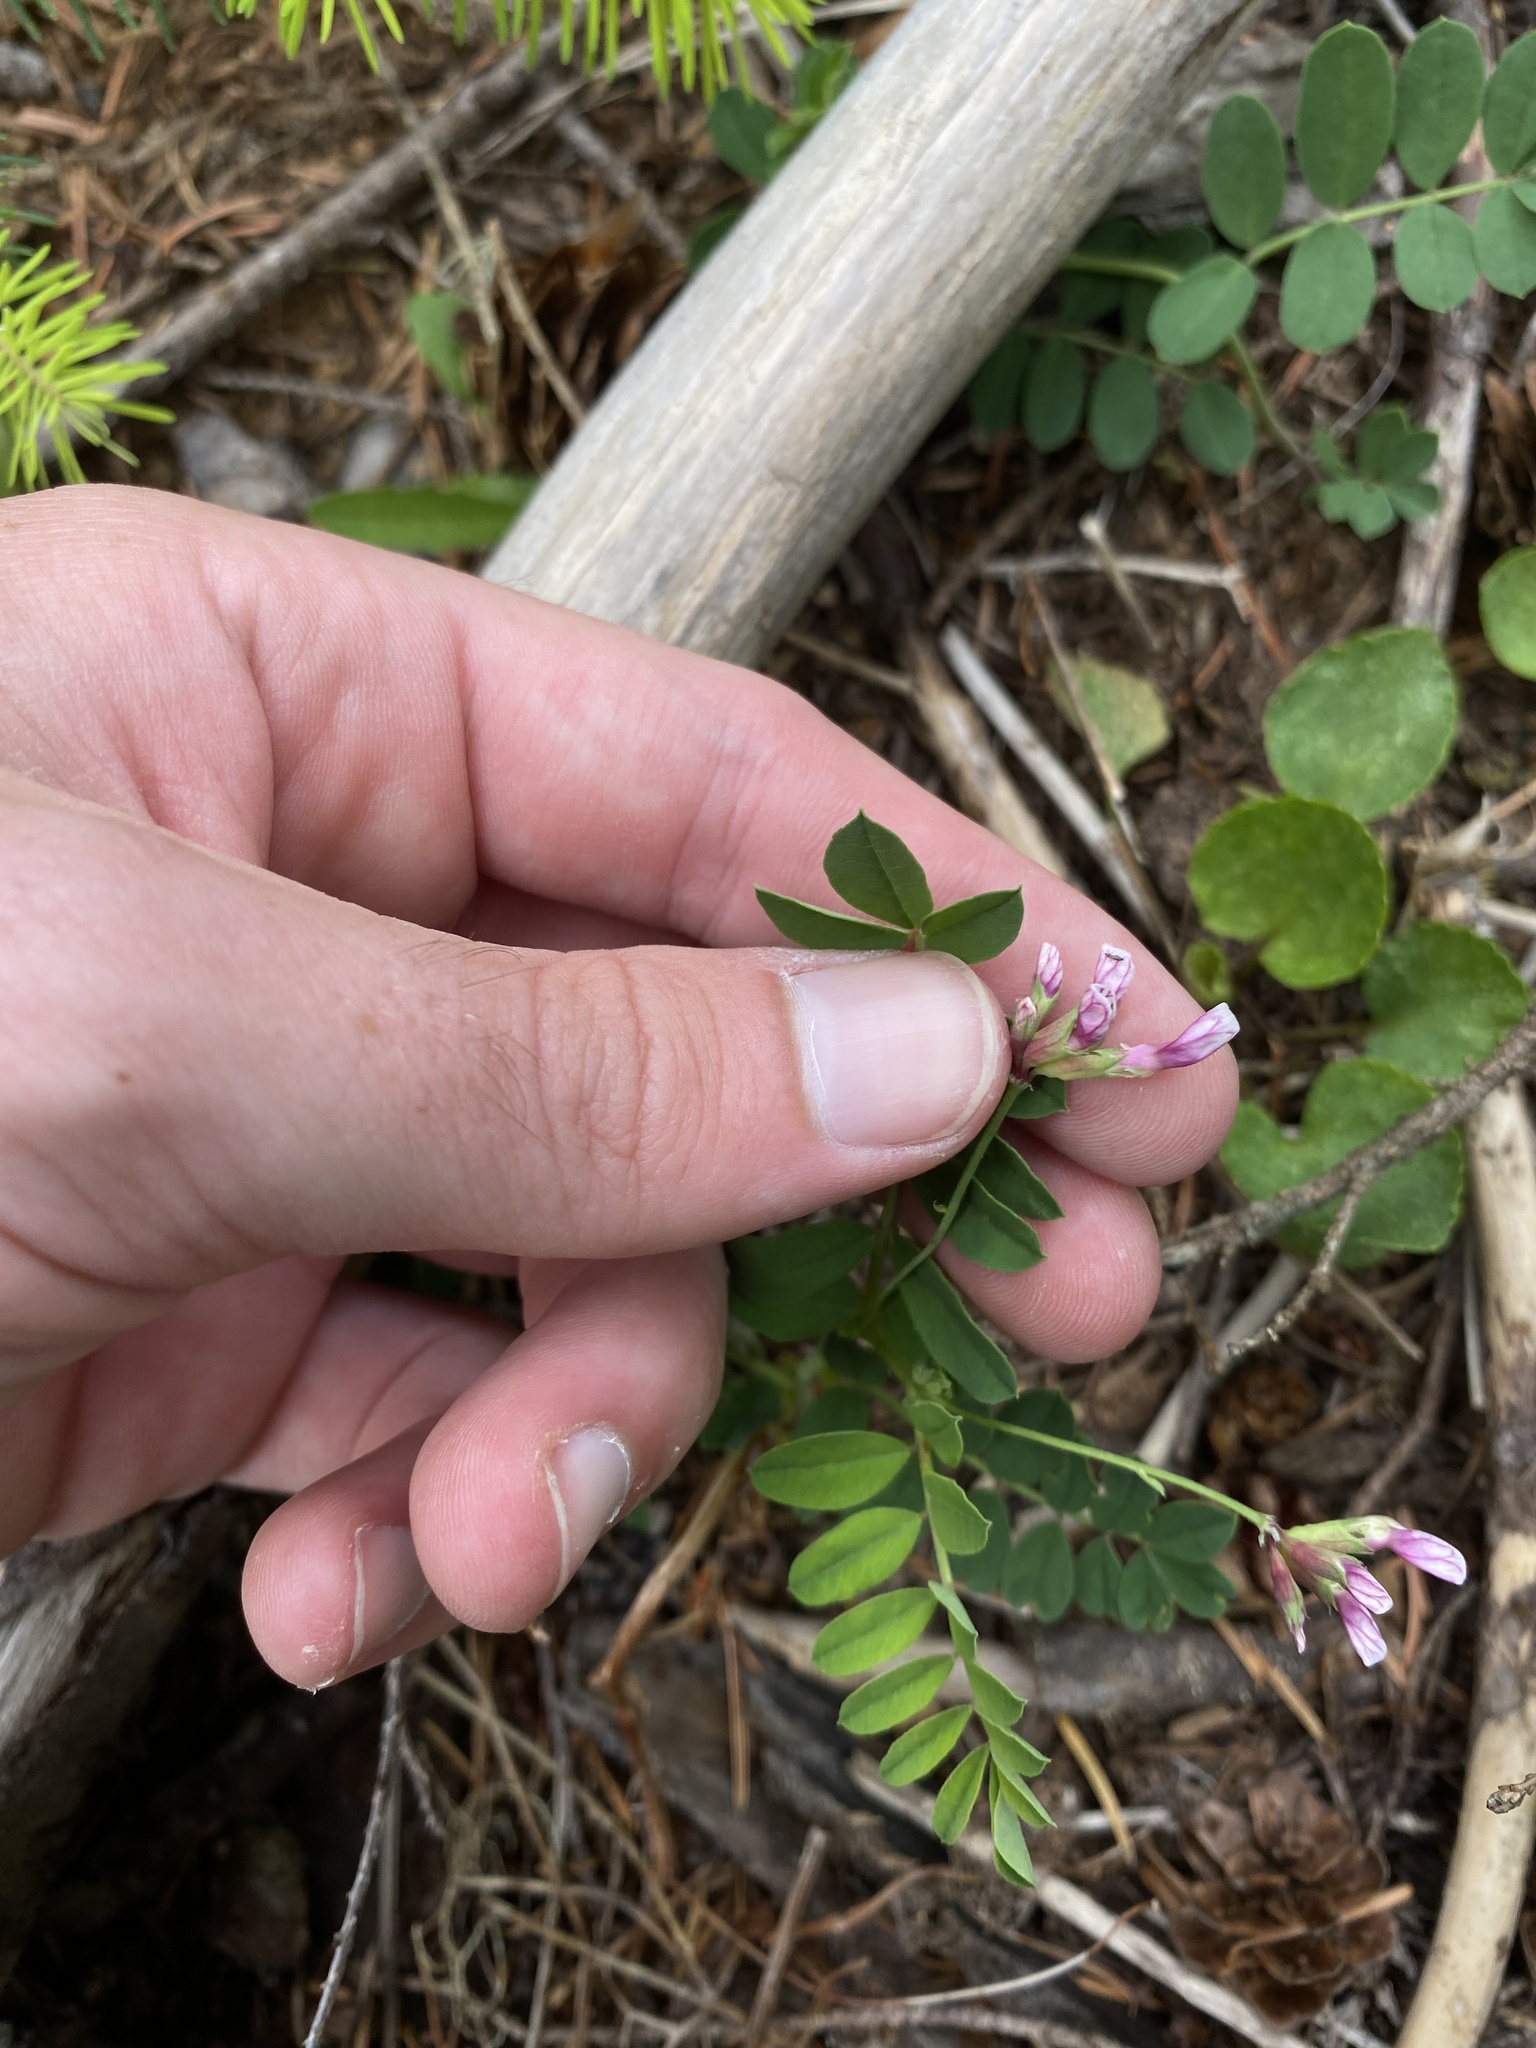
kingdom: Plantae
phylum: Tracheophyta
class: Magnoliopsida
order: Fabales
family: Fabaceae
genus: Hosackia
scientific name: Hosackia rosea
